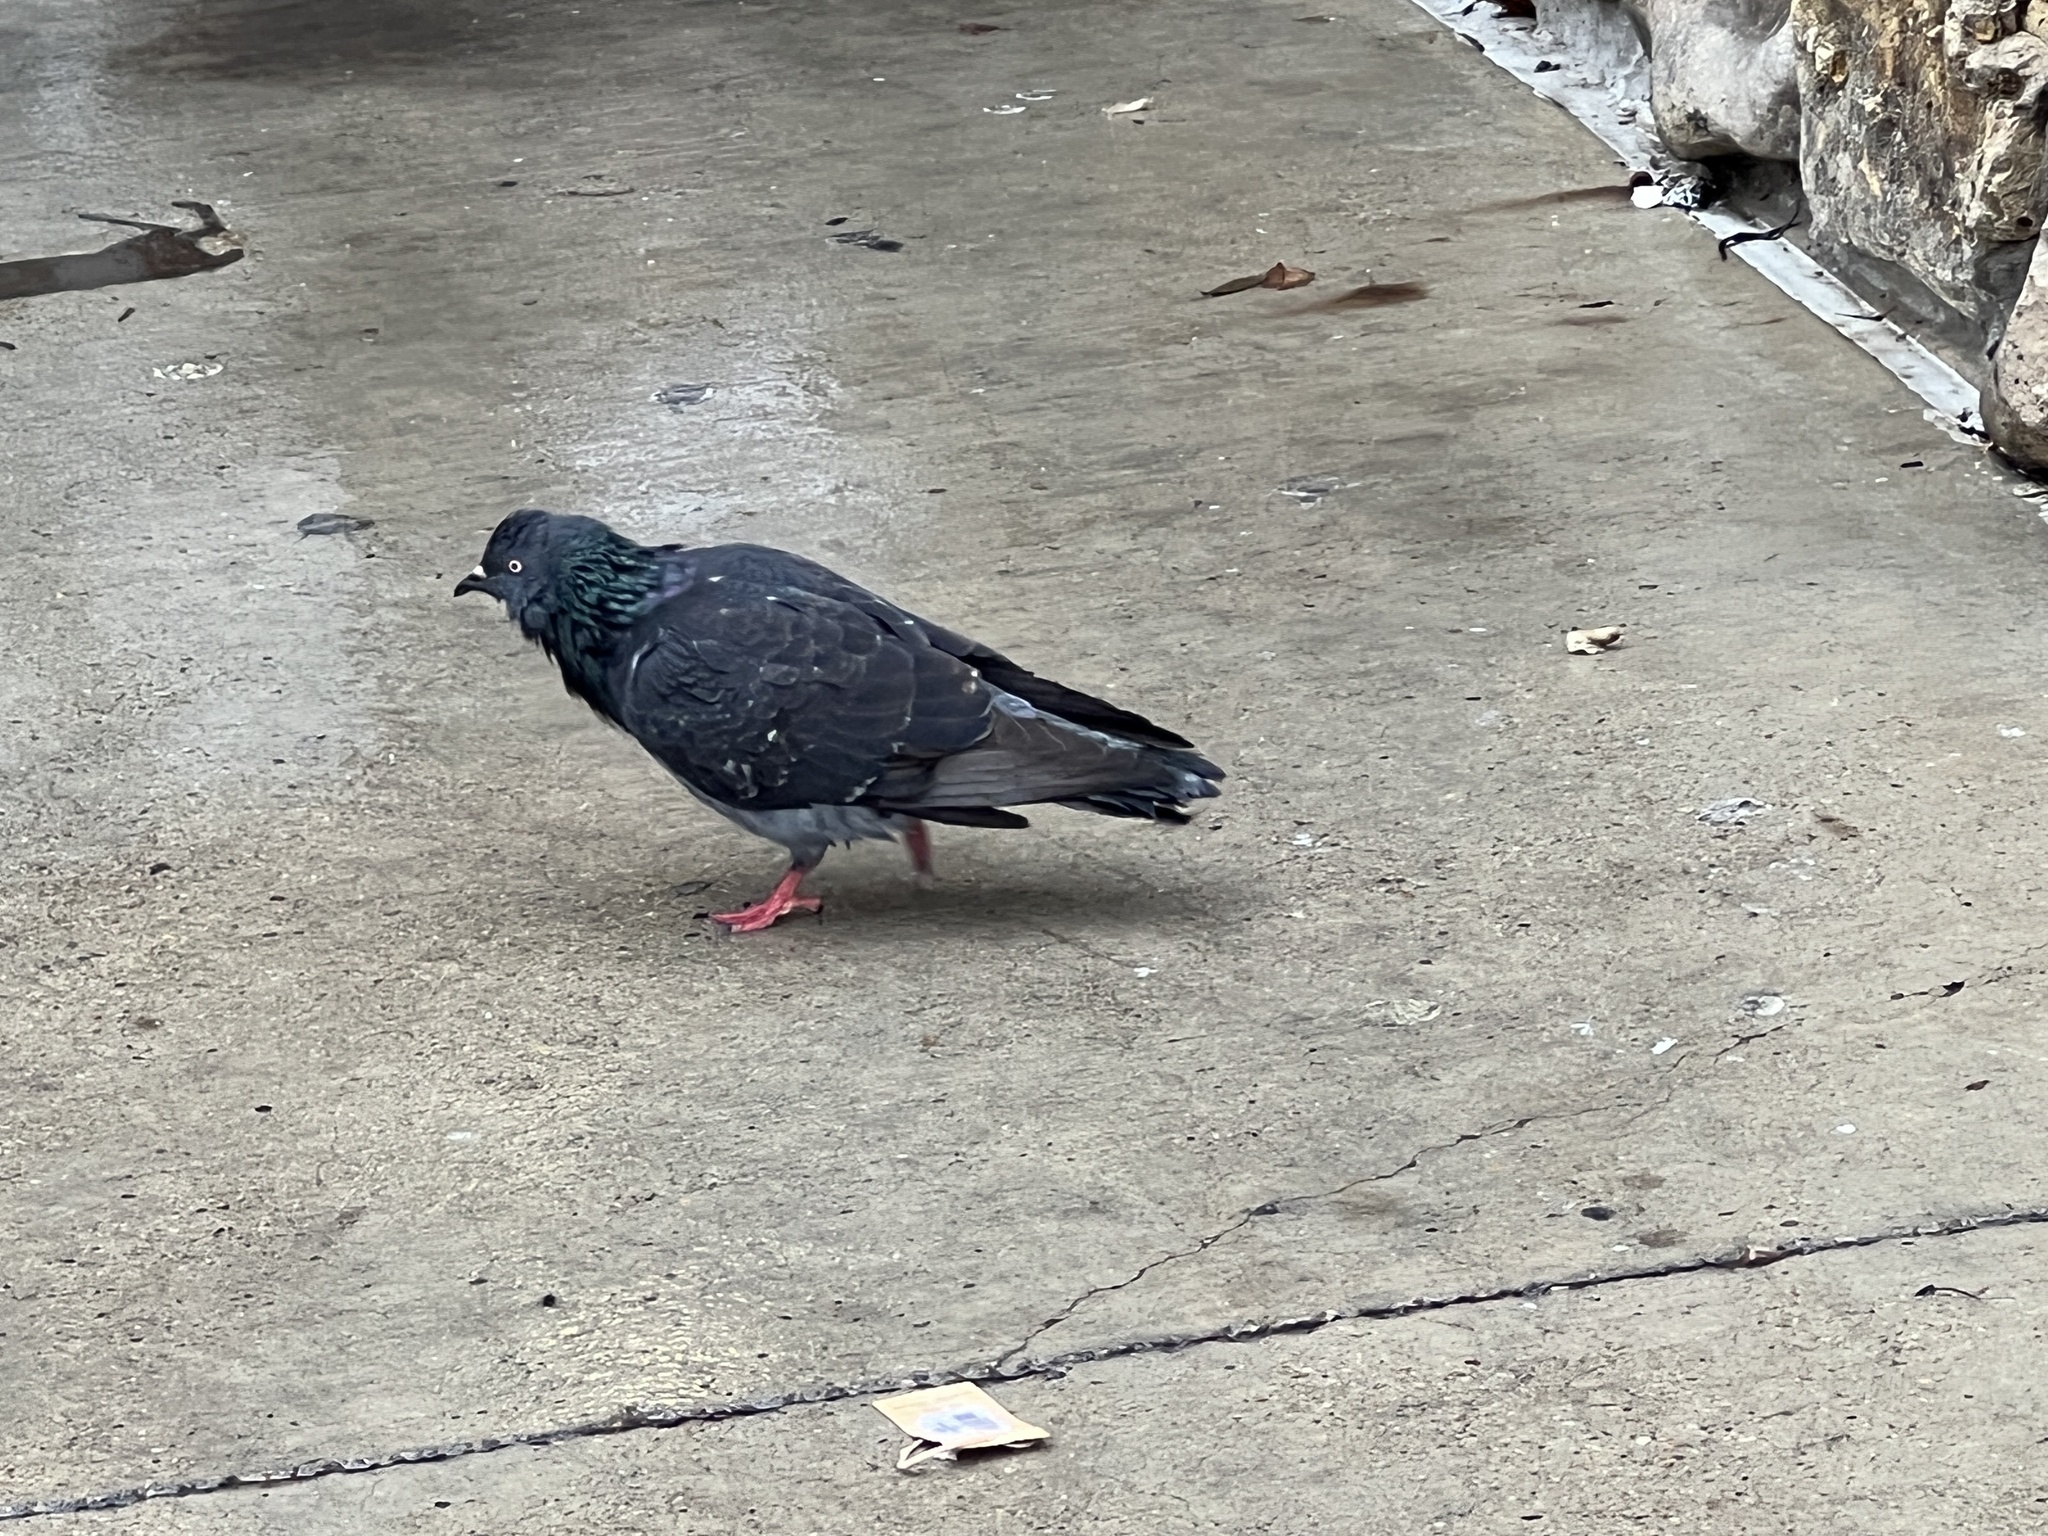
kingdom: Animalia
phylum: Chordata
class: Aves
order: Columbiformes
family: Columbidae
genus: Columba
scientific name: Columba livia
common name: Rock pigeon
